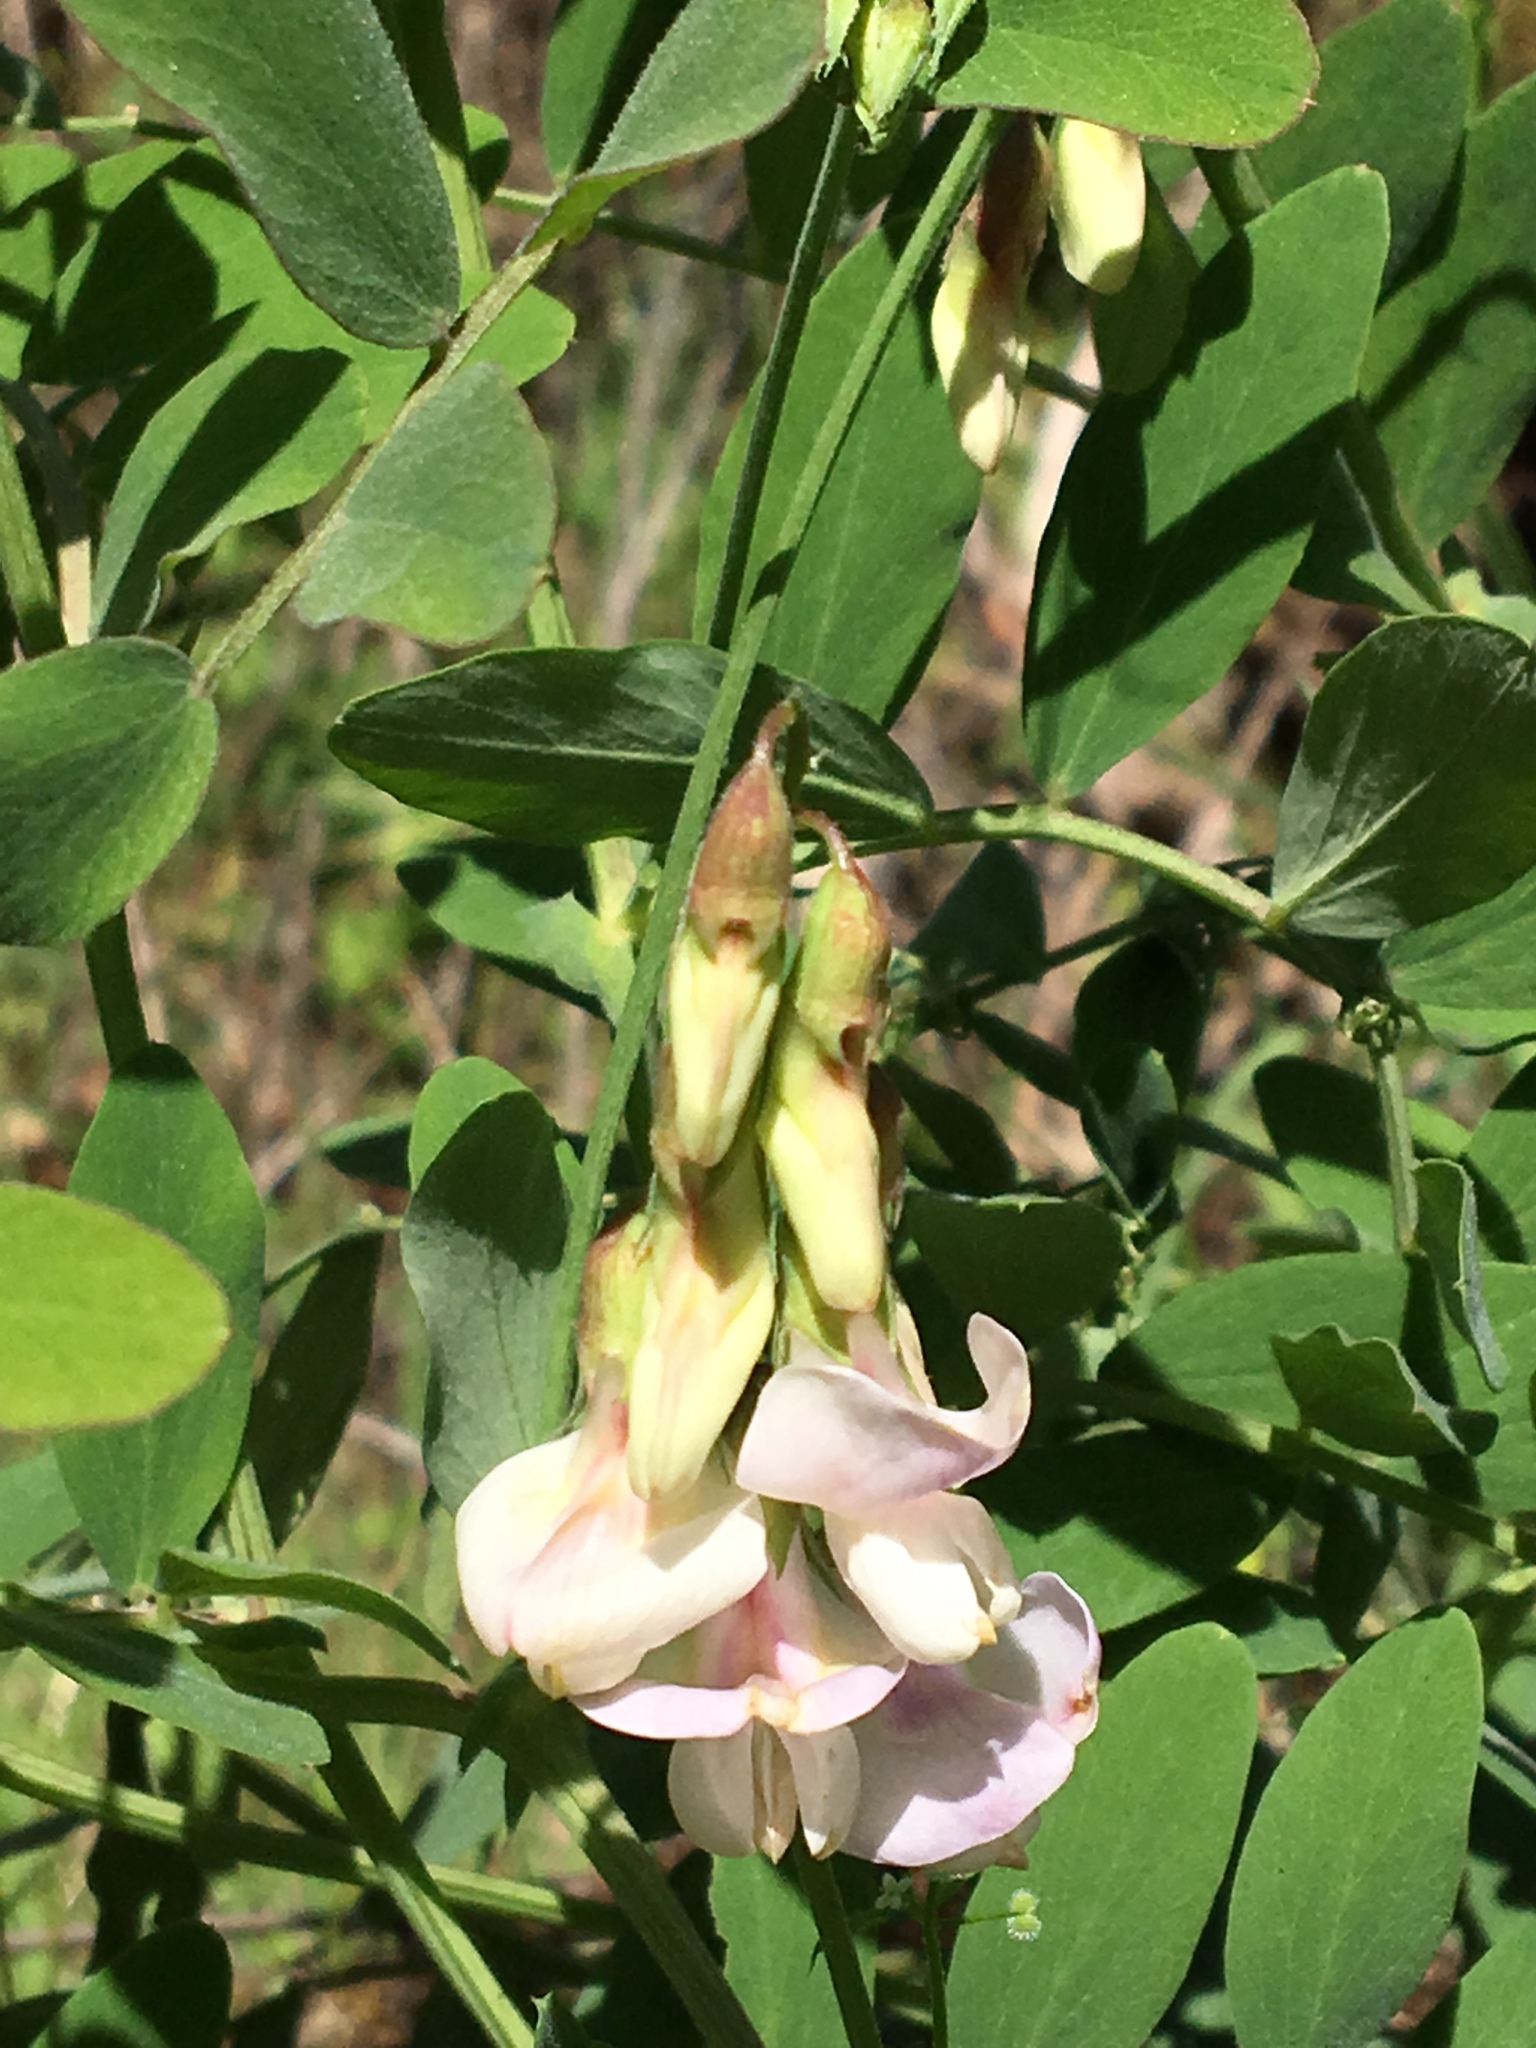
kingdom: Plantae
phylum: Tracheophyta
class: Magnoliopsida
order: Fabales
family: Fabaceae
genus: Lathyrus
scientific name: Lathyrus vestitus
